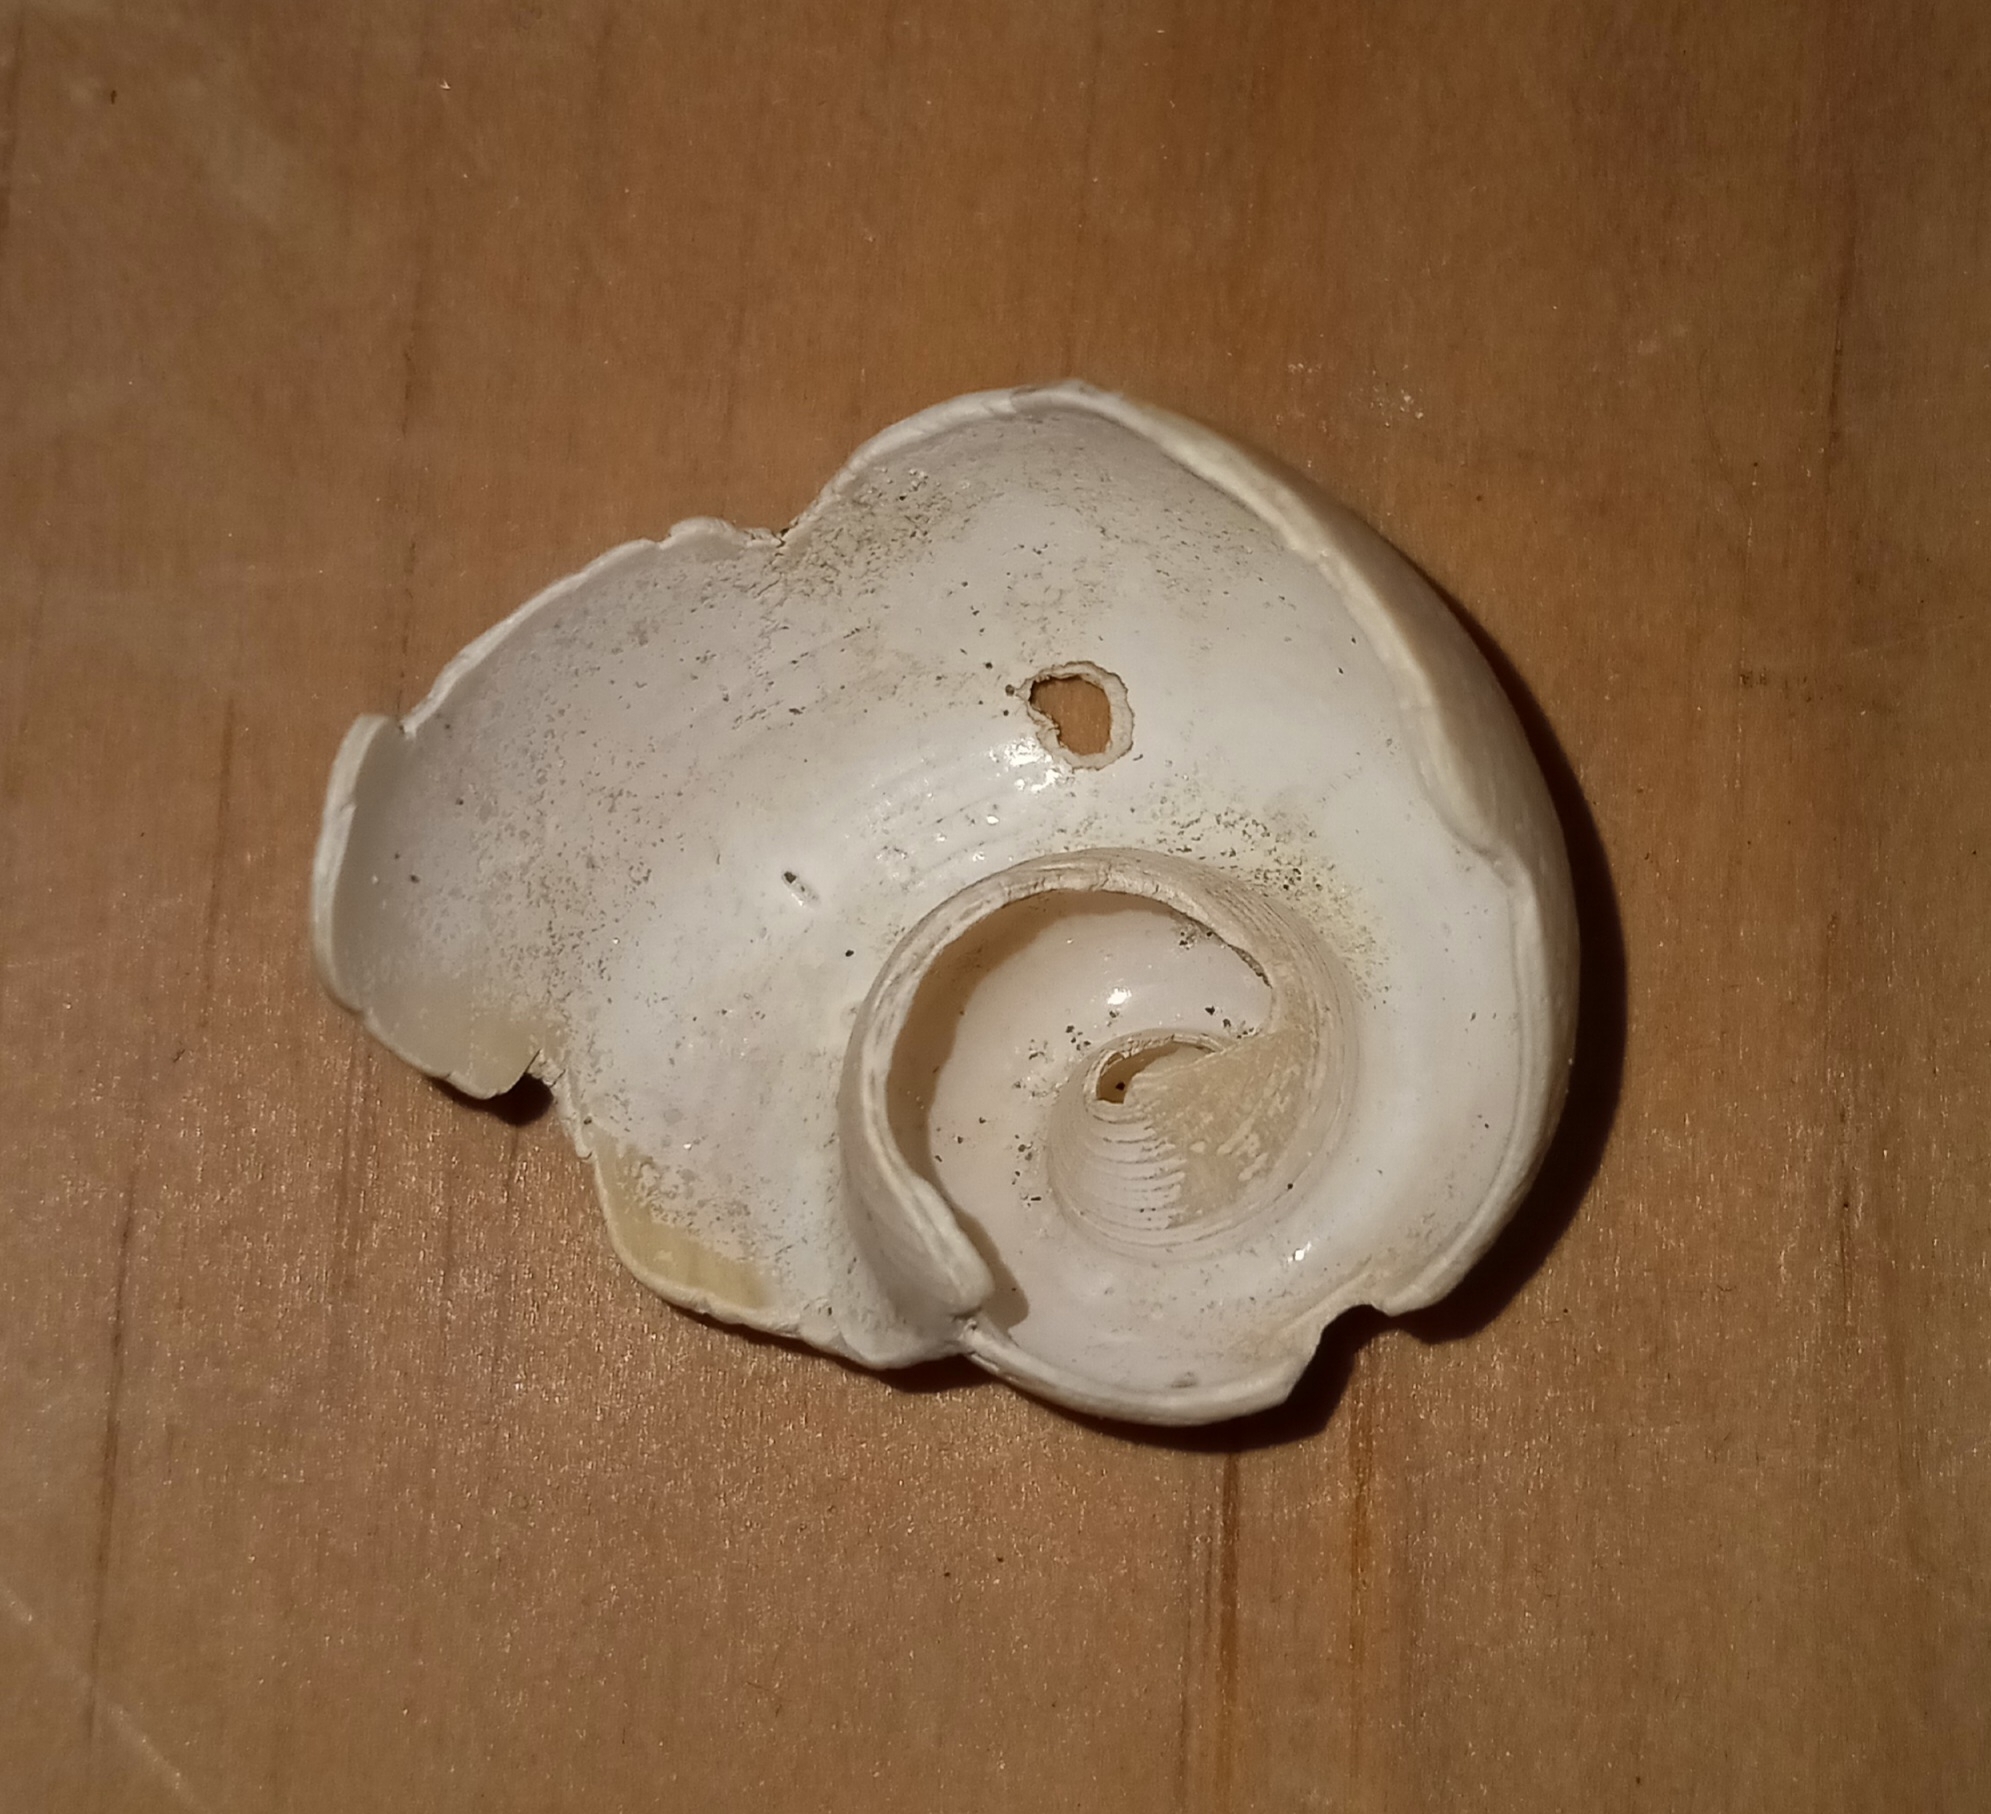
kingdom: Animalia
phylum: Mollusca
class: Gastropoda
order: Neogastropoda
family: Busyconidae
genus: Fulguropsis
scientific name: Fulguropsis pyruloides
